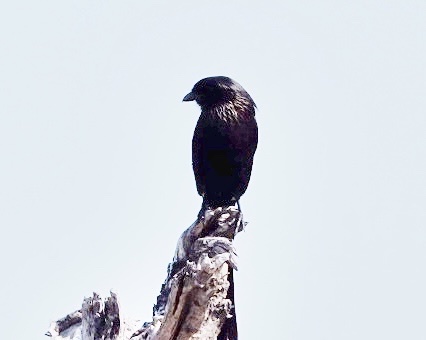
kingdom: Animalia
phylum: Chordata
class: Aves
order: Passeriformes
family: Laniidae
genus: Urolestes
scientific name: Urolestes melanoleucus
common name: Magpie shrike
